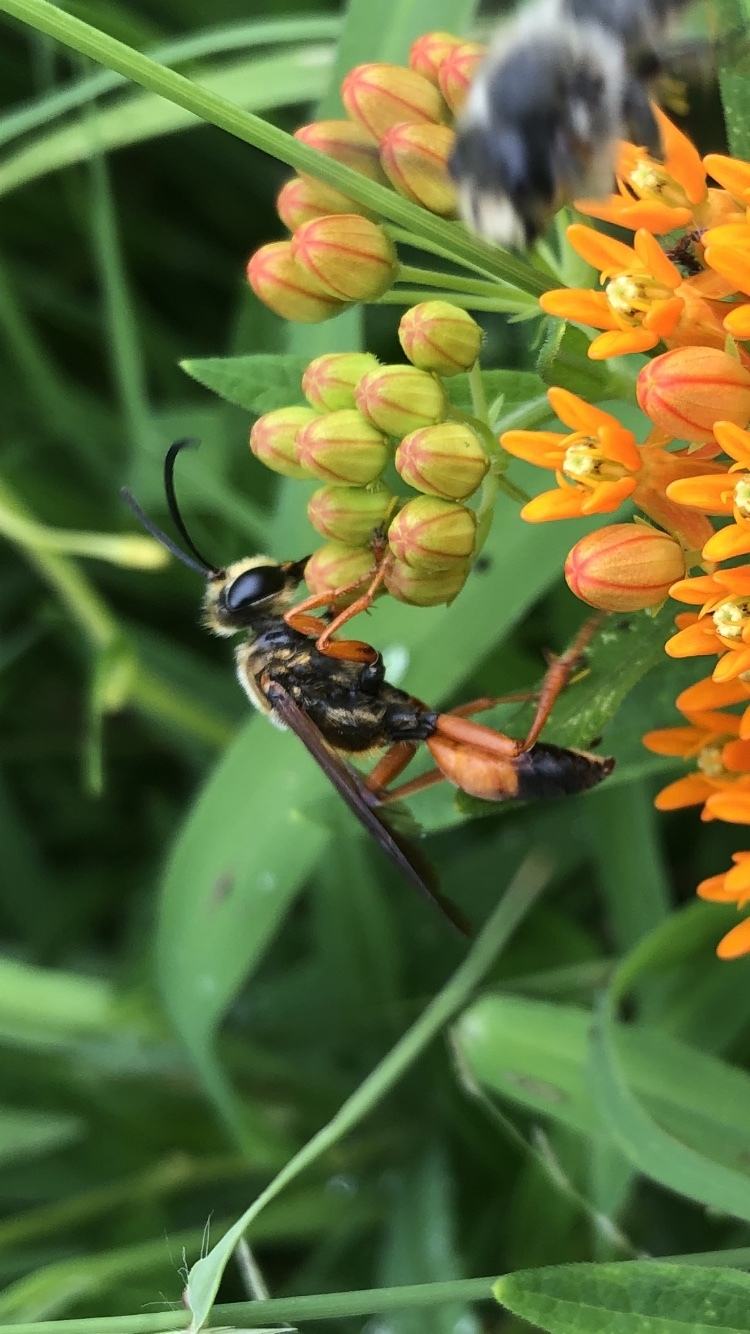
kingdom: Animalia
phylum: Arthropoda
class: Insecta
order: Hymenoptera
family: Sphecidae
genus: Sphex
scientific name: Sphex ichneumoneus
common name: Great golden digger wasp
